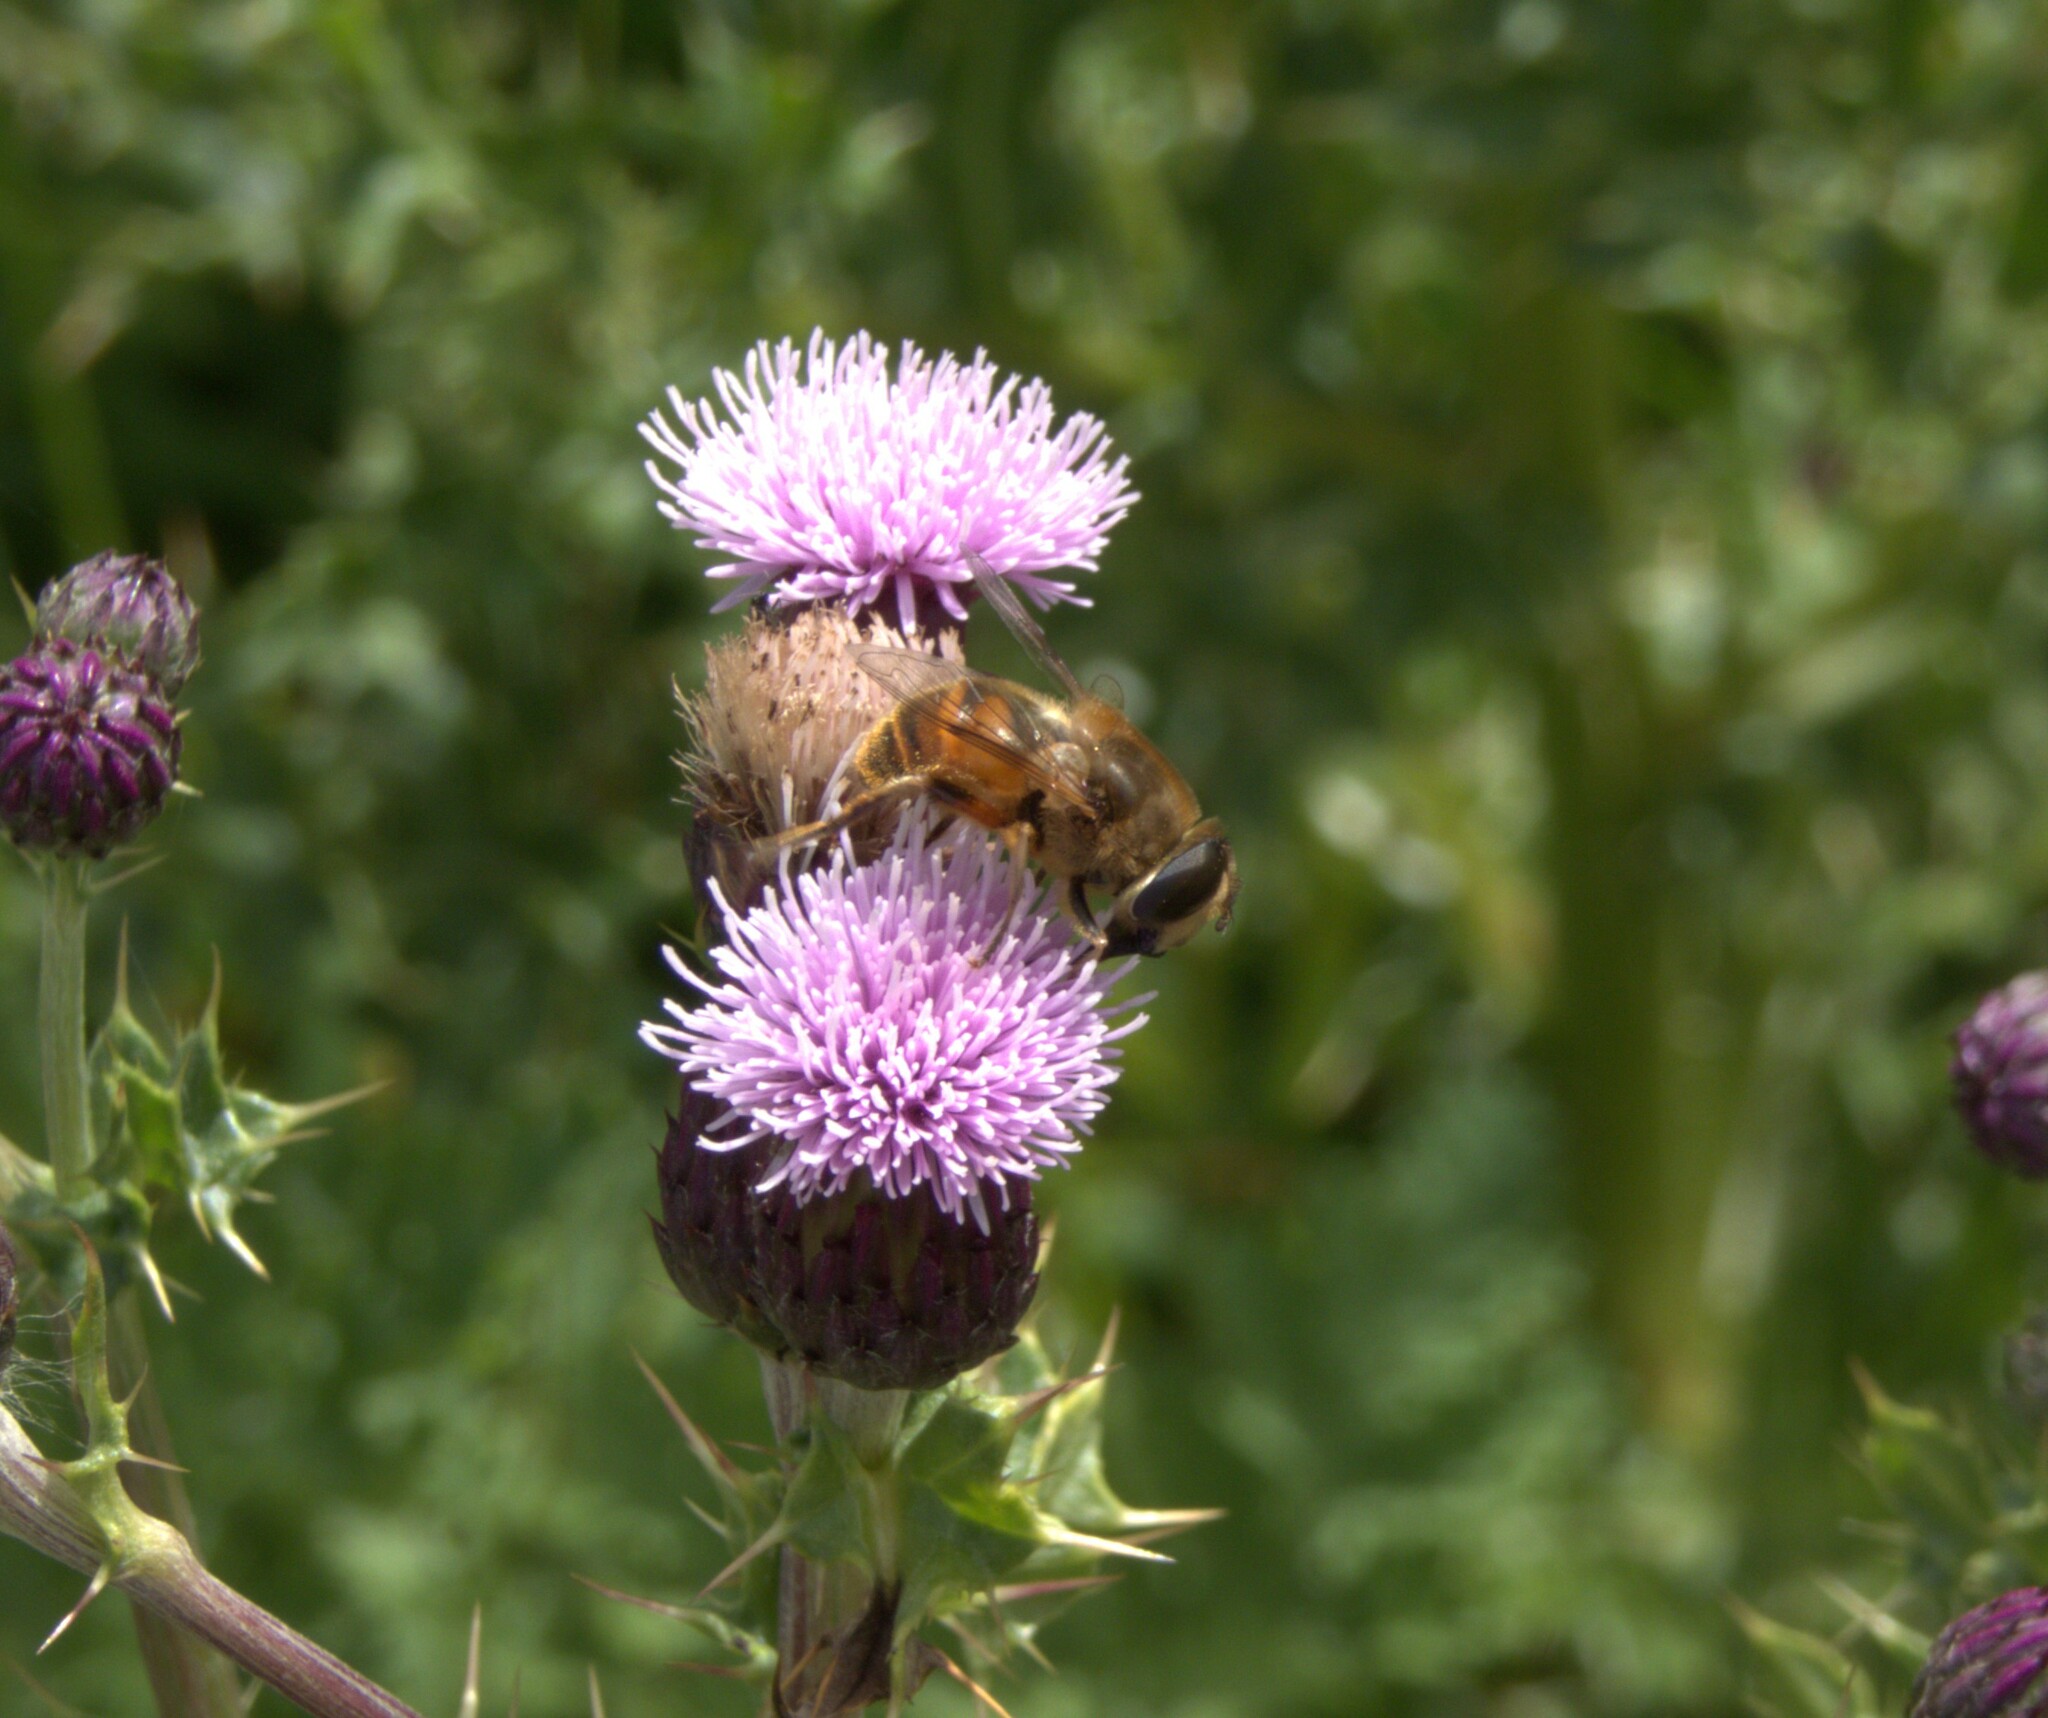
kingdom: Animalia
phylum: Arthropoda
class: Insecta
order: Diptera
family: Syrphidae
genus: Eristalis
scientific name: Eristalis tenax
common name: Drone fly
